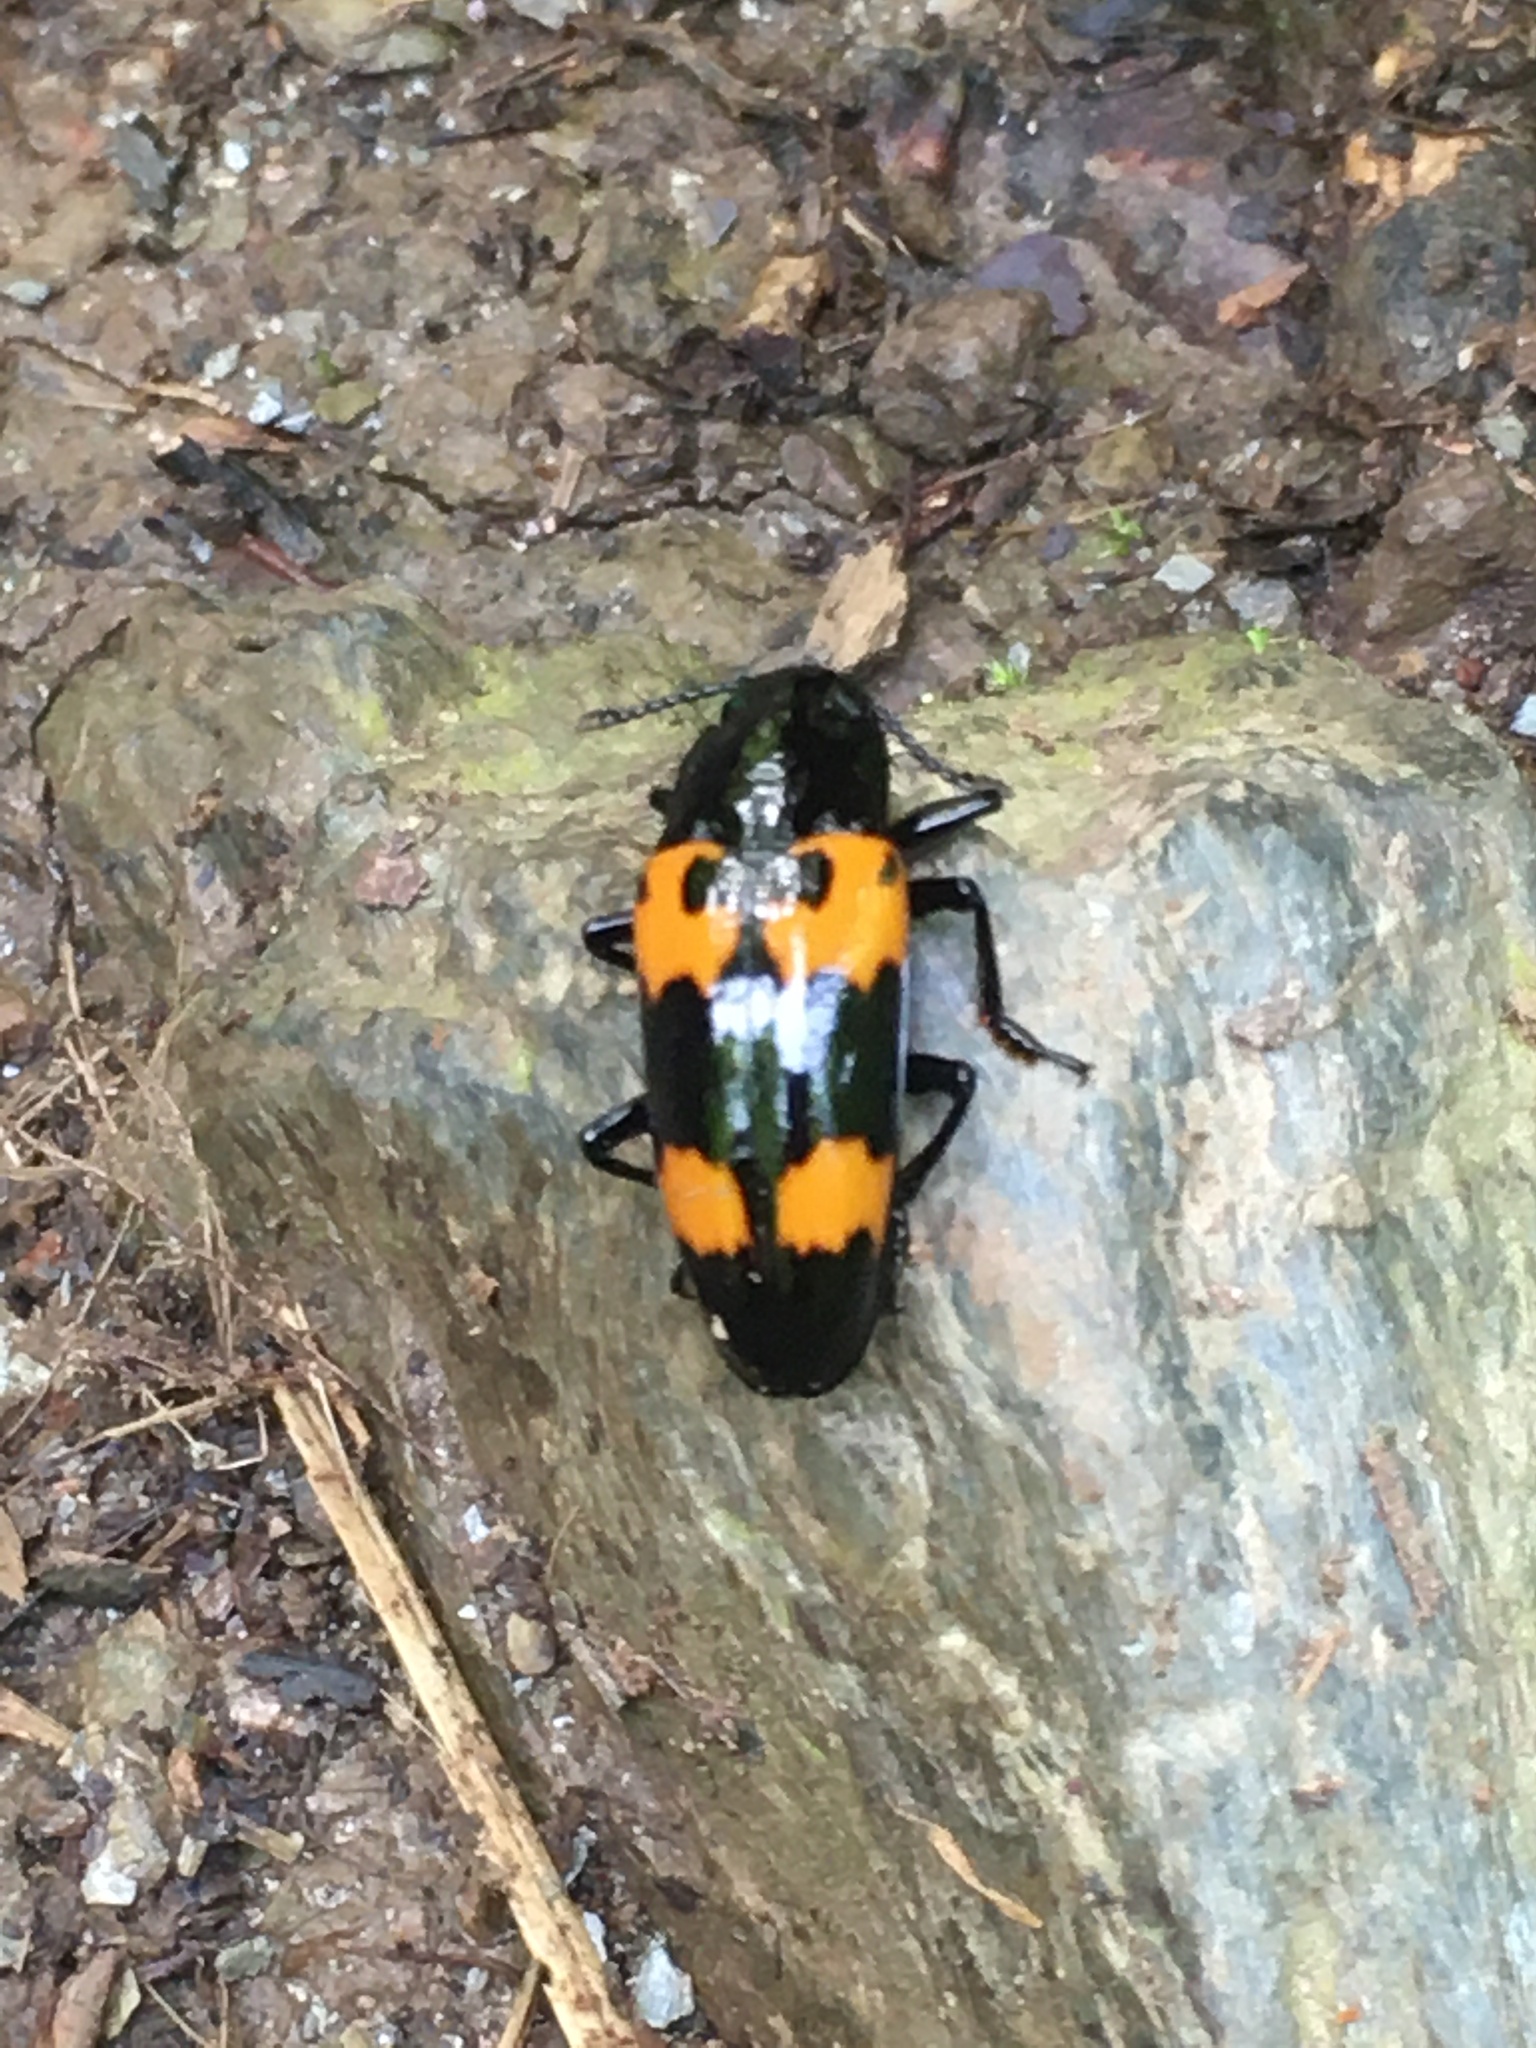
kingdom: Animalia
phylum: Arthropoda
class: Insecta
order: Coleoptera
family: Erotylidae
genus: Megalodacne
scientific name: Megalodacne heros
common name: Pleasing fungus beetle
